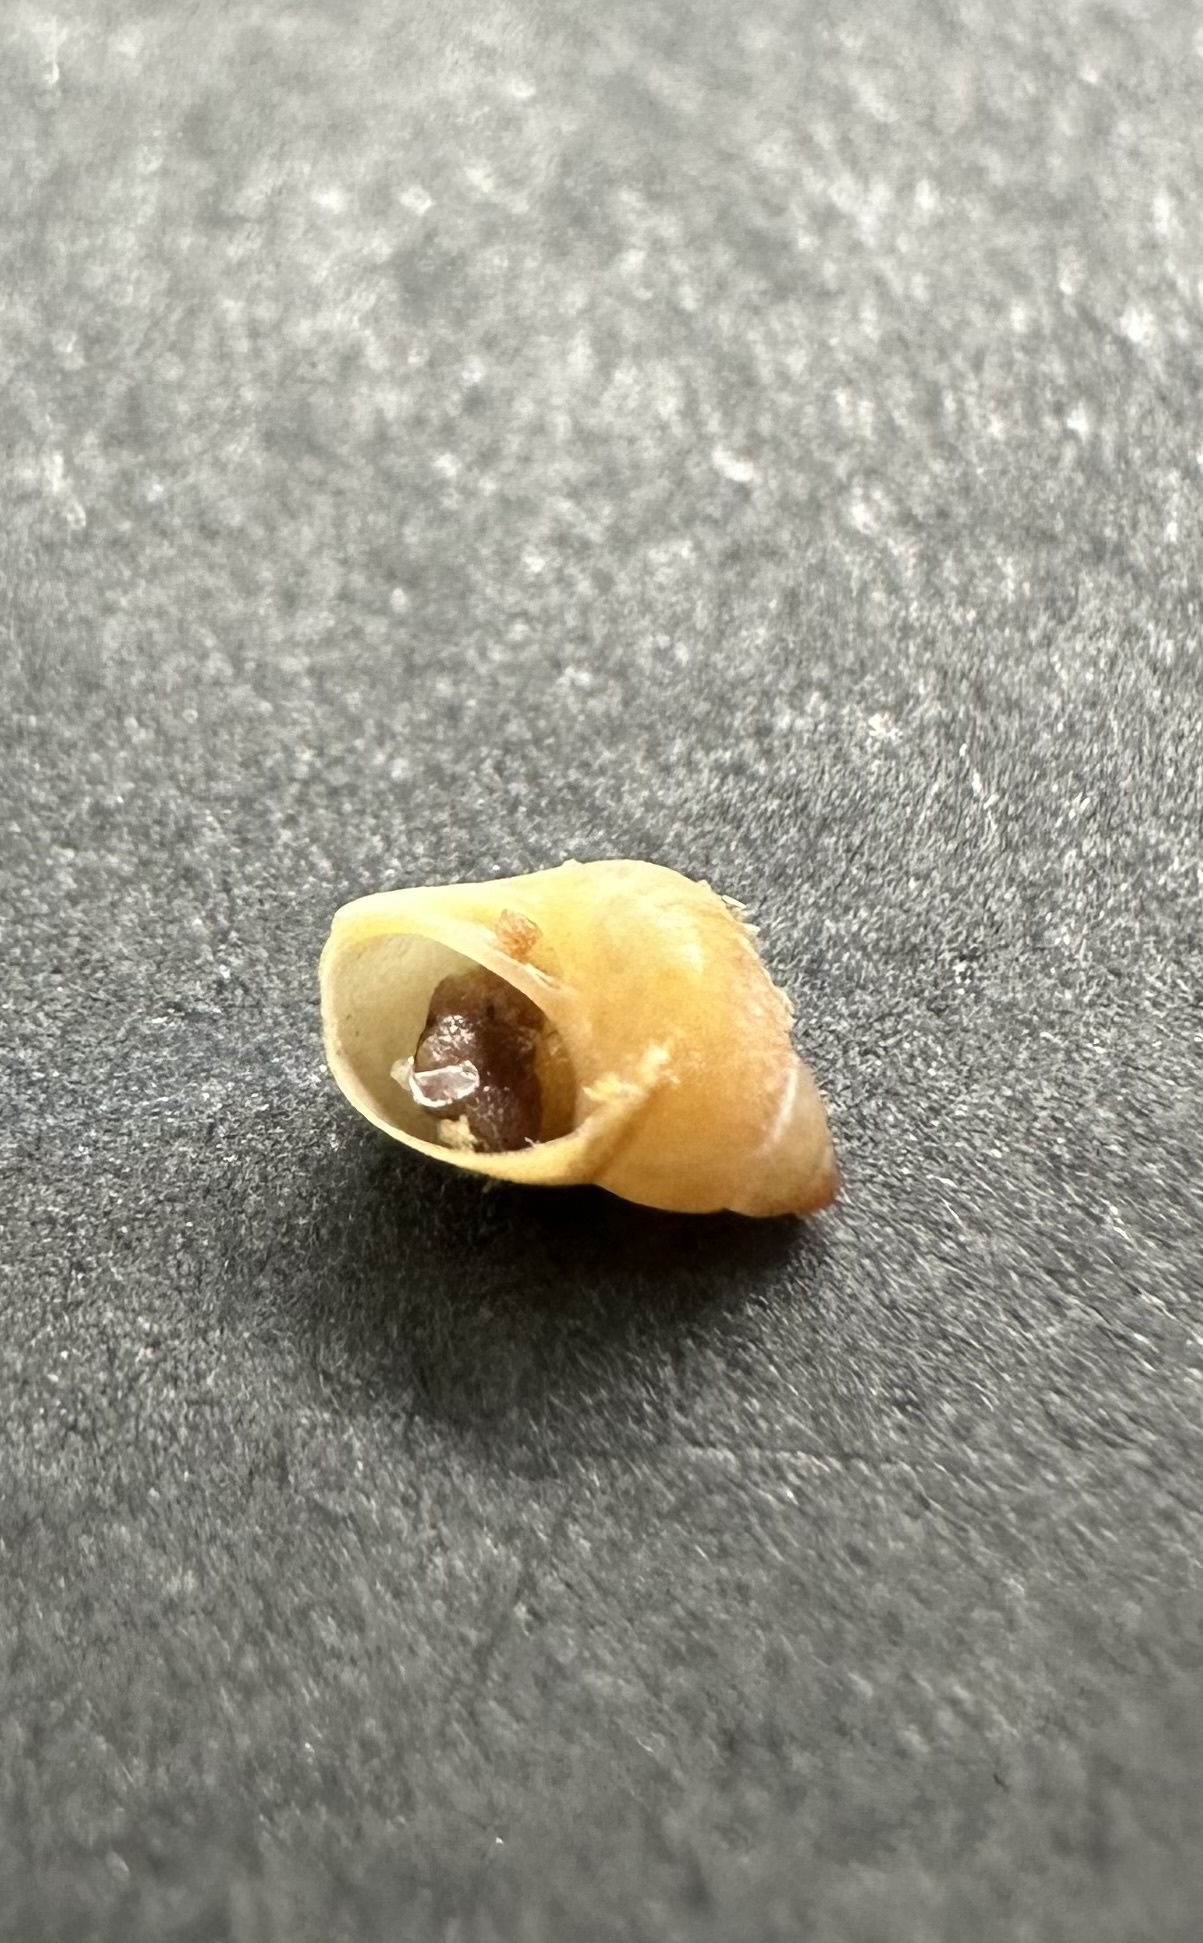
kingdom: Animalia
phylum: Mollusca
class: Gastropoda
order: Littorinimorpha
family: Littorinidae
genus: Lacuna
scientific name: Lacuna vincta
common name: Banded chink shell
